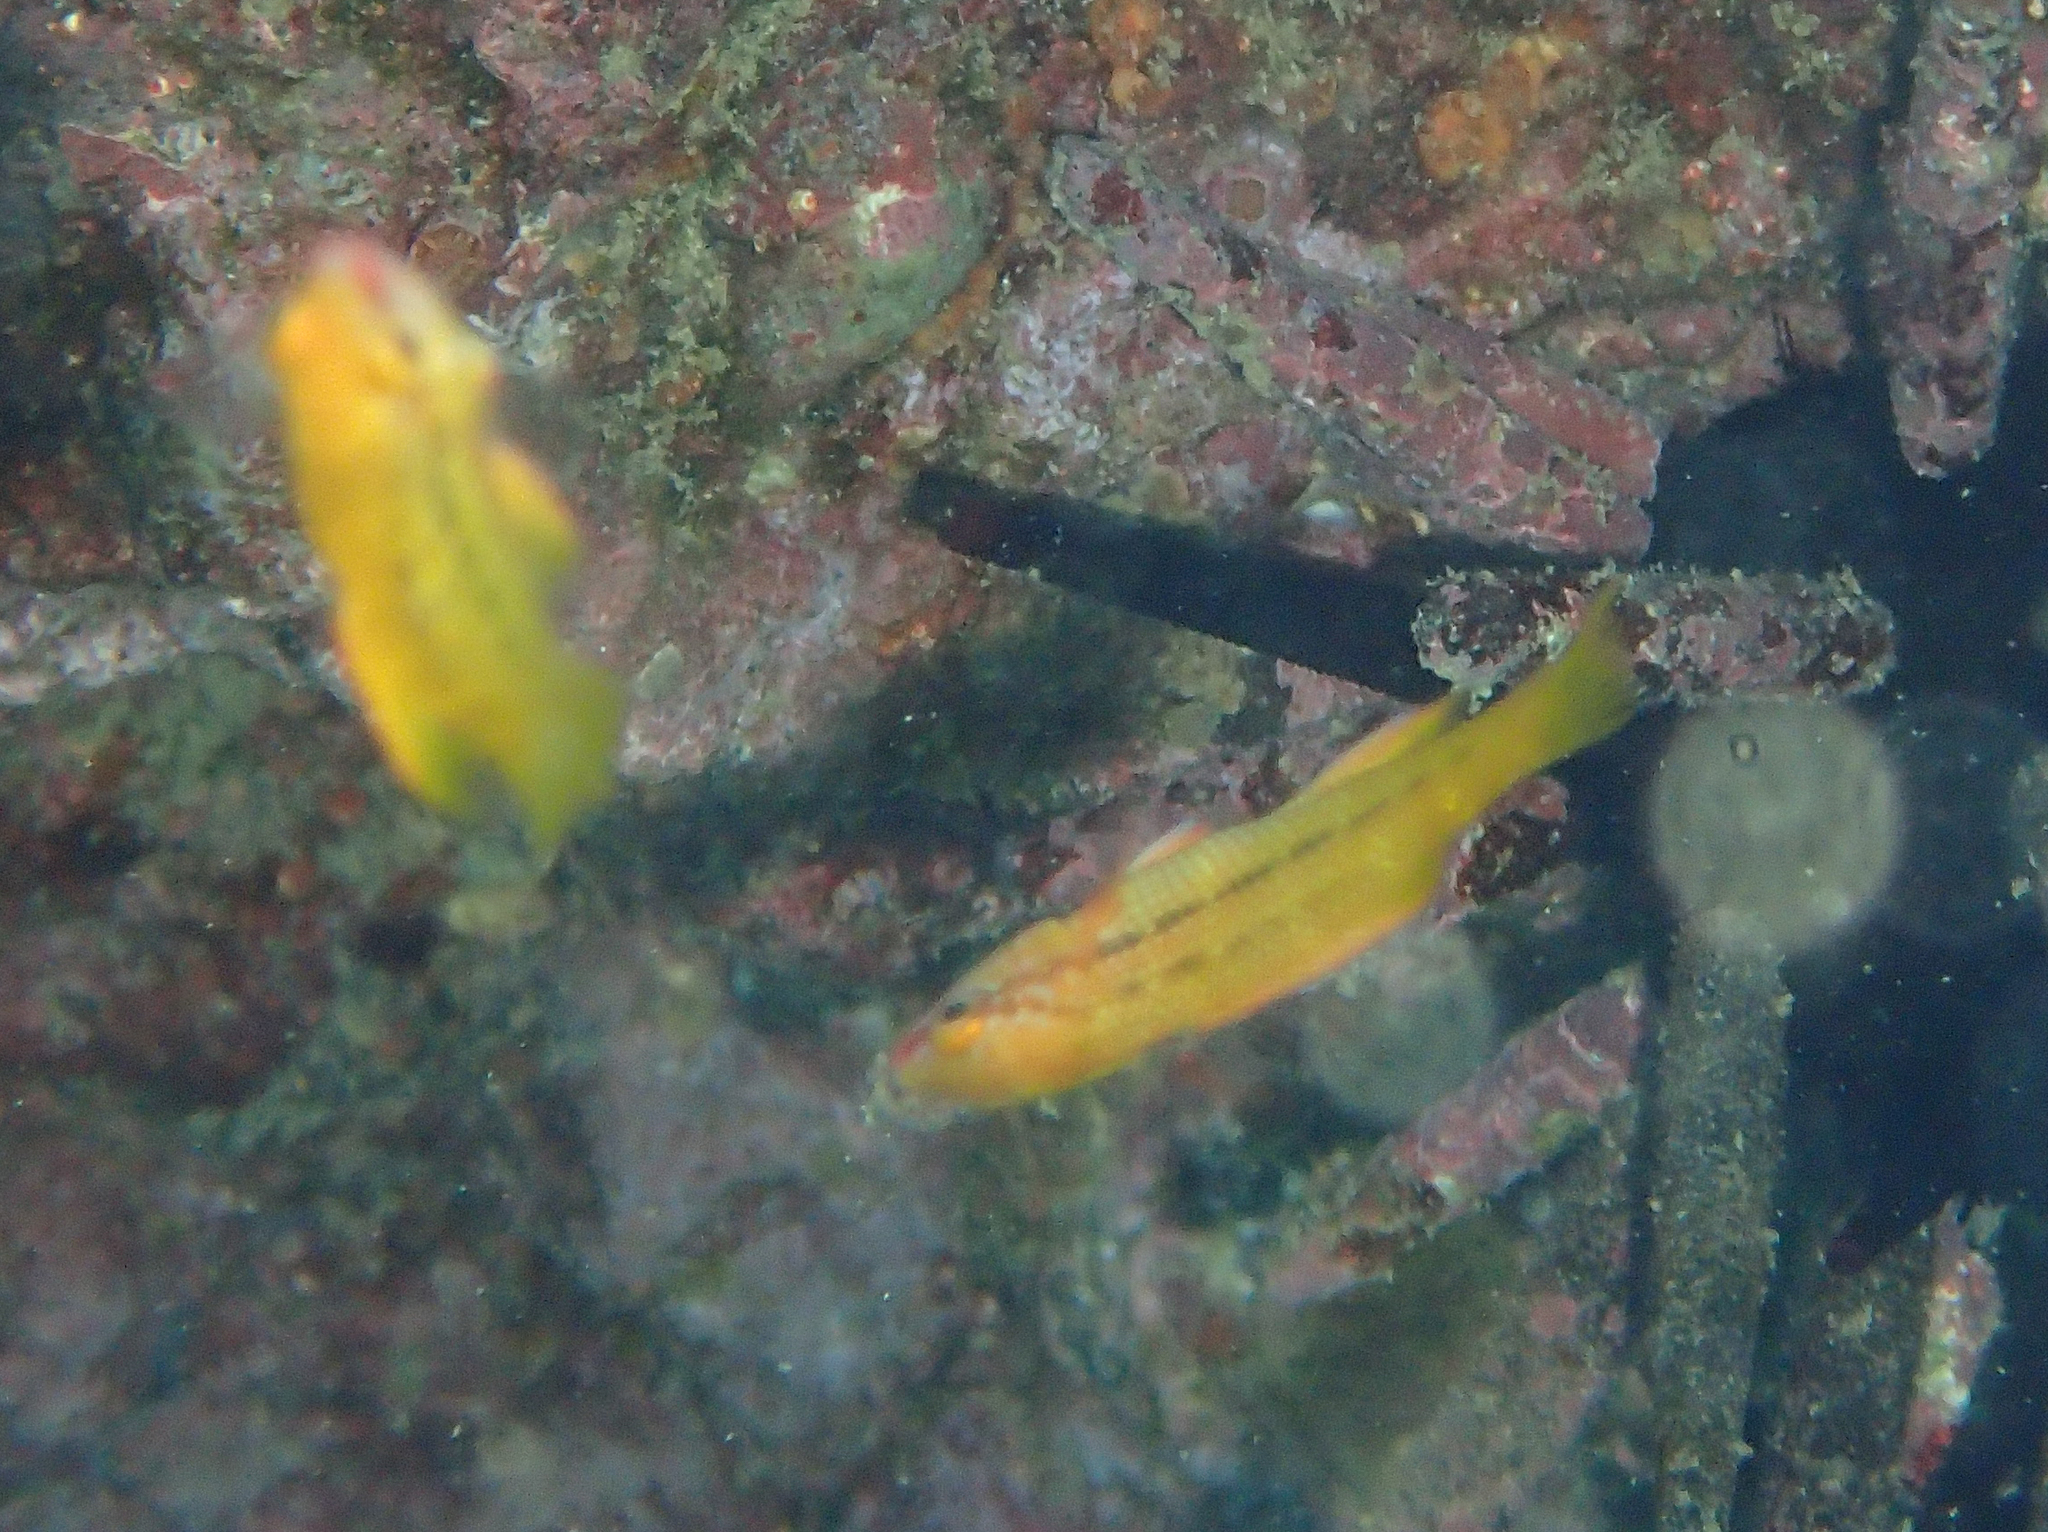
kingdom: Animalia
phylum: Chordata
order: Perciformes
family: Labridae
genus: Bodianus
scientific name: Bodianus diplotaenia
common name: Mexican hogfish
